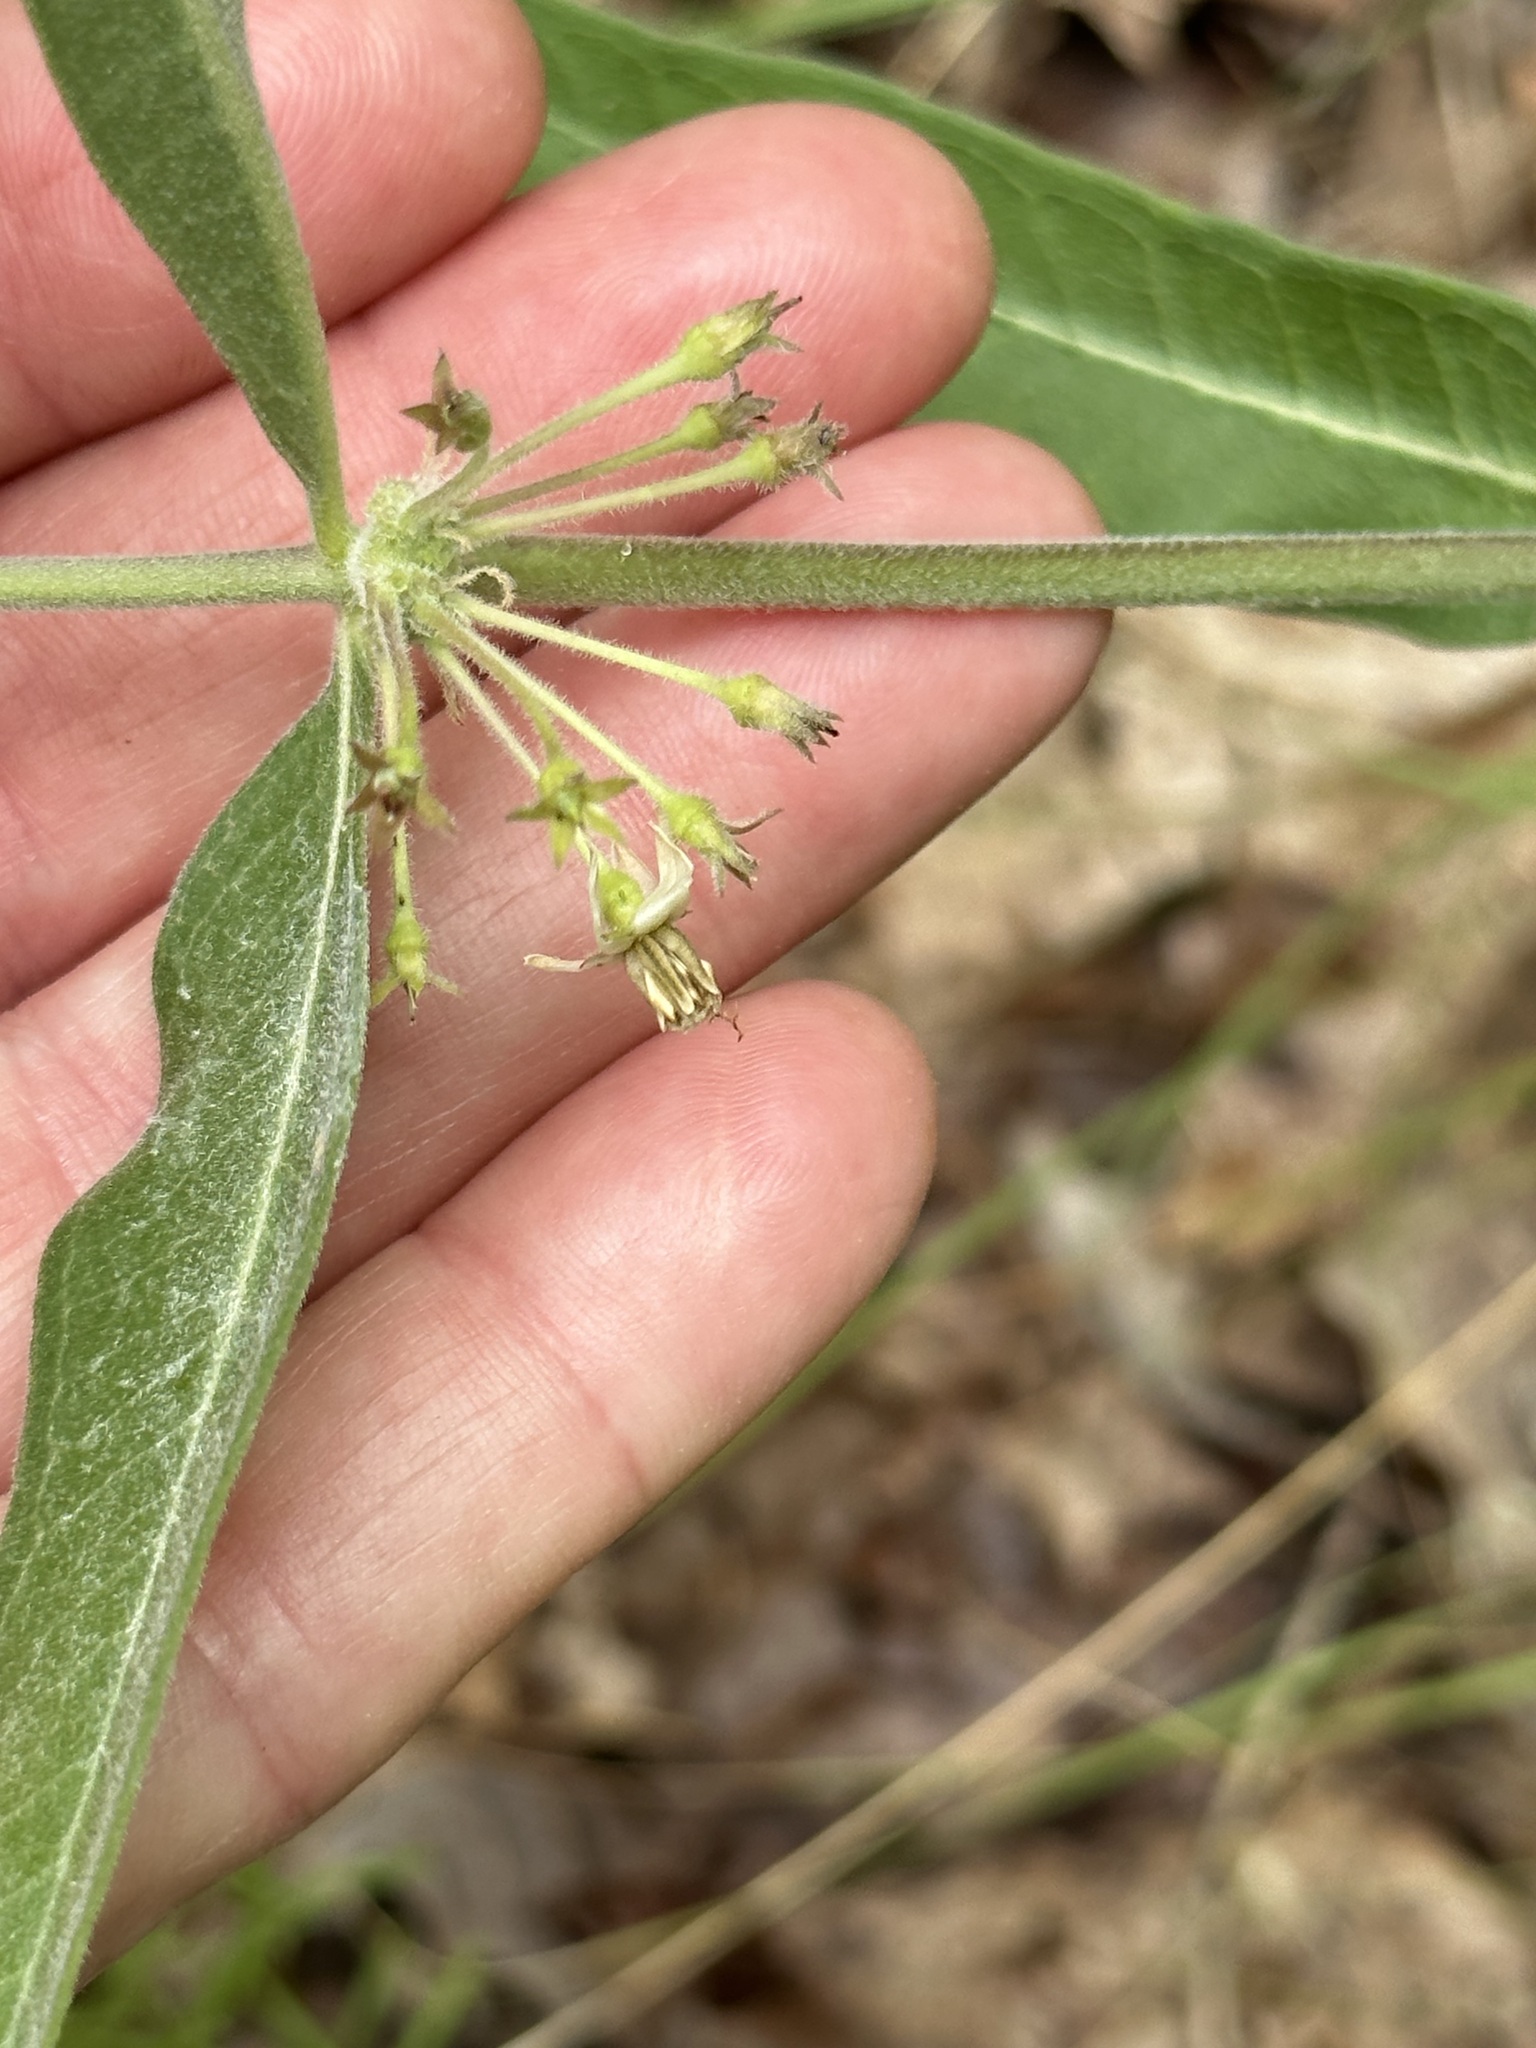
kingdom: Plantae
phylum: Tracheophyta
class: Magnoliopsida
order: Gentianales
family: Apocynaceae
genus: Asclepias
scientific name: Asclepias viridiflora
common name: Green comet milkweed
